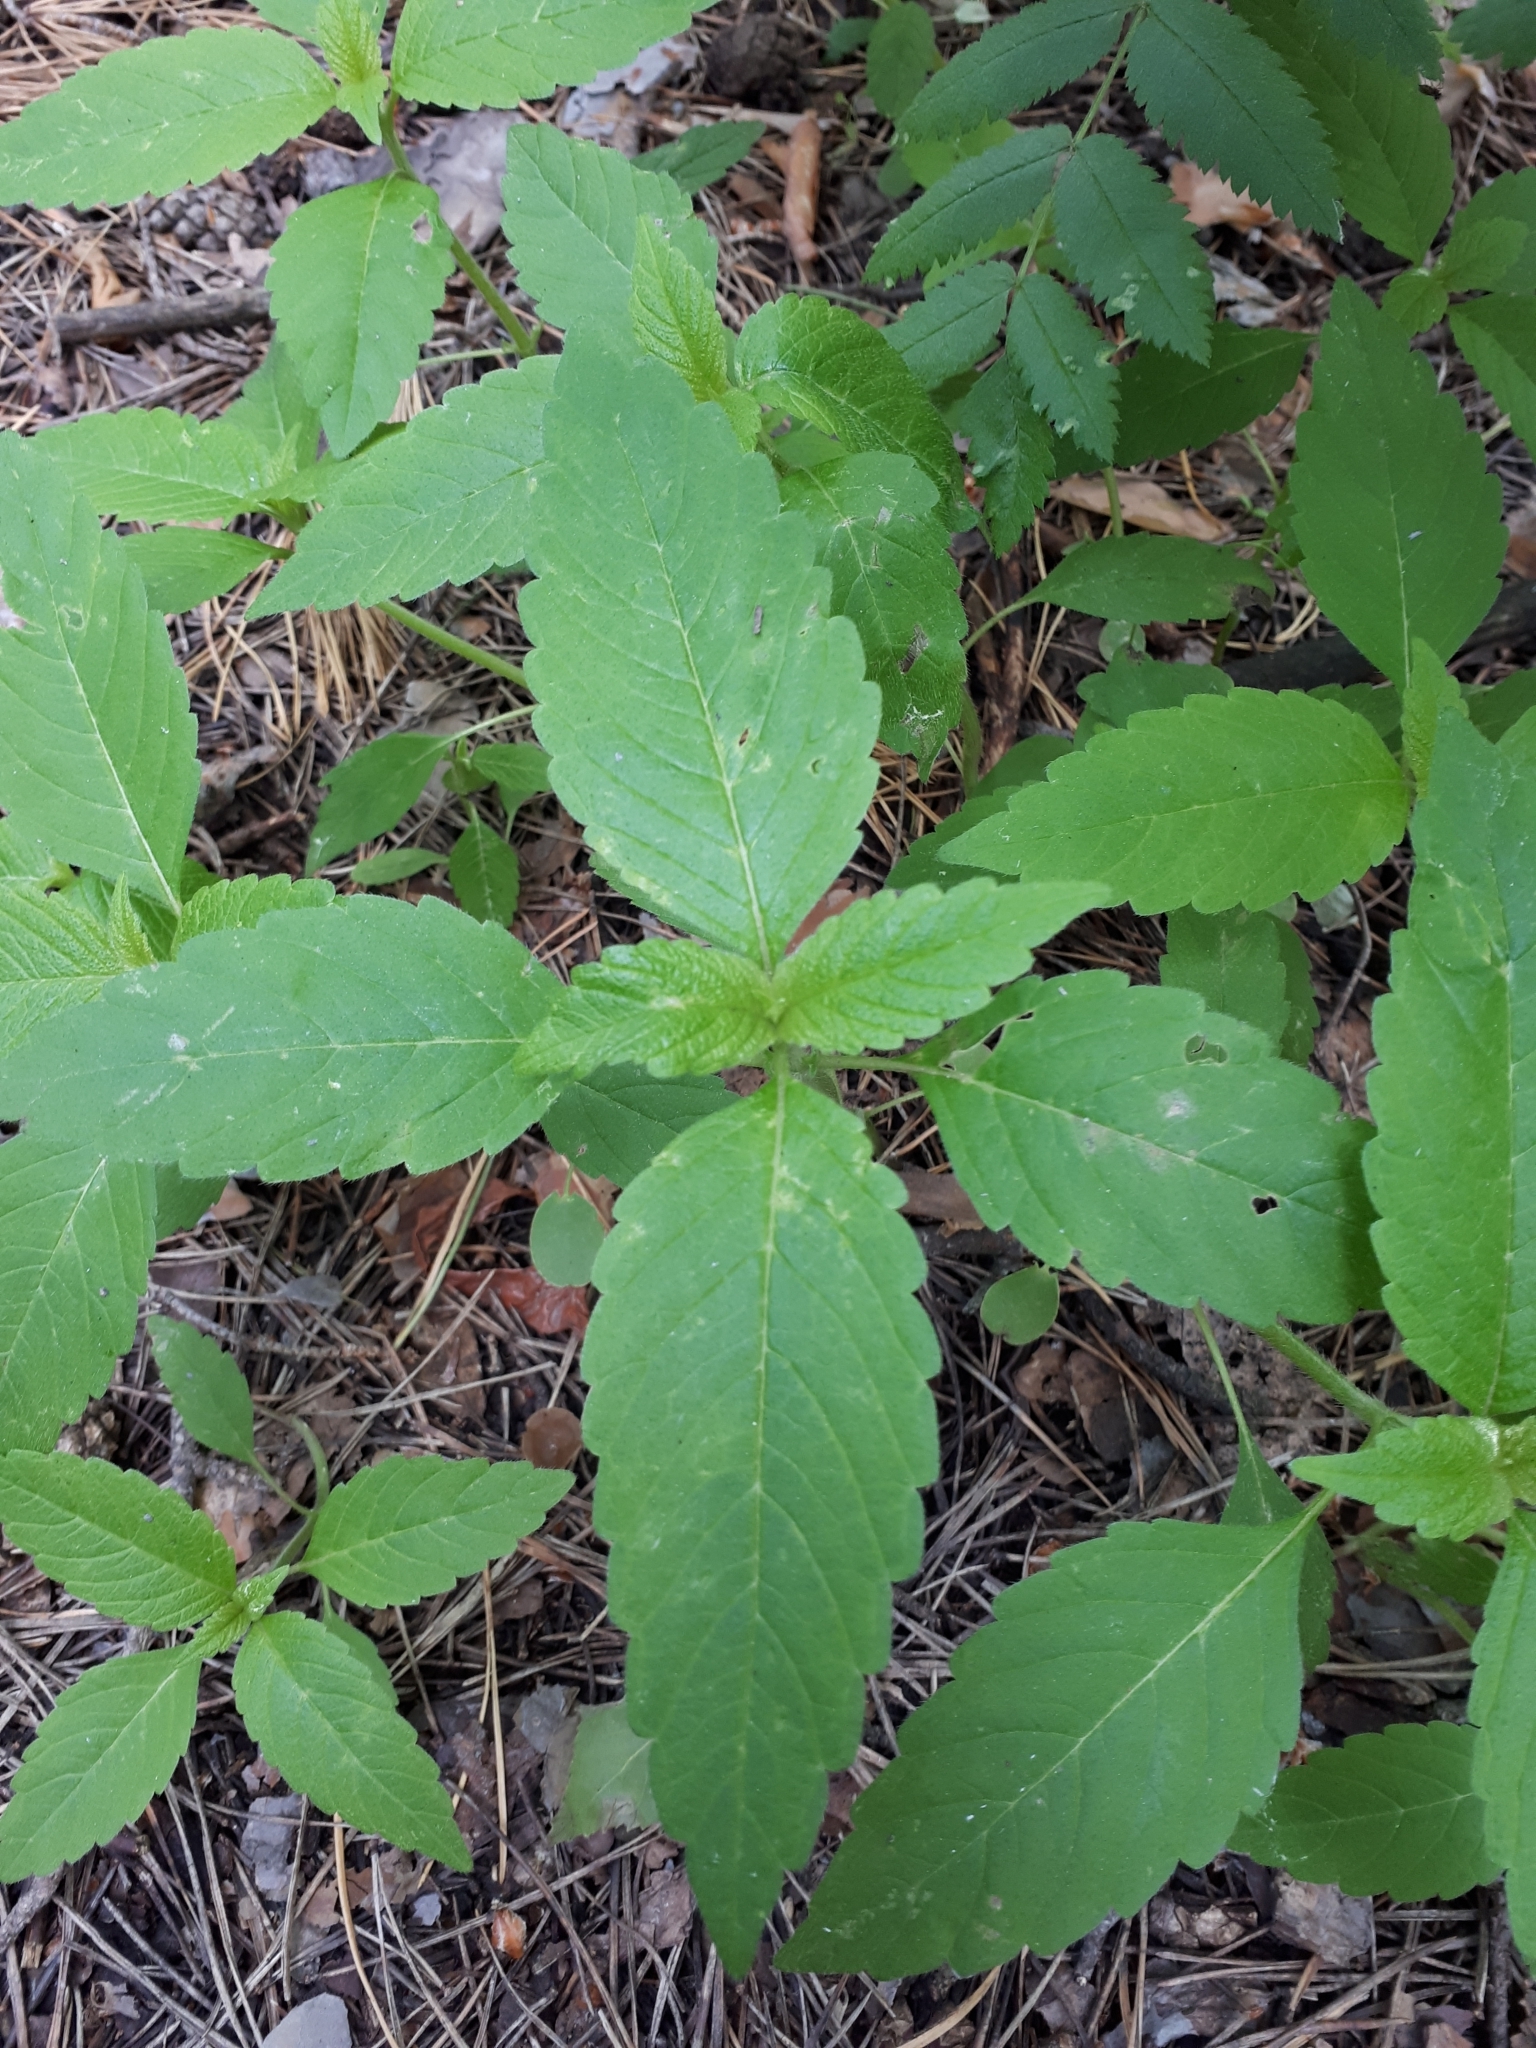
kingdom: Plantae
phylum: Tracheophyta
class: Magnoliopsida
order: Lamiales
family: Lamiaceae
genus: Galeopsis
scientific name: Galeopsis
